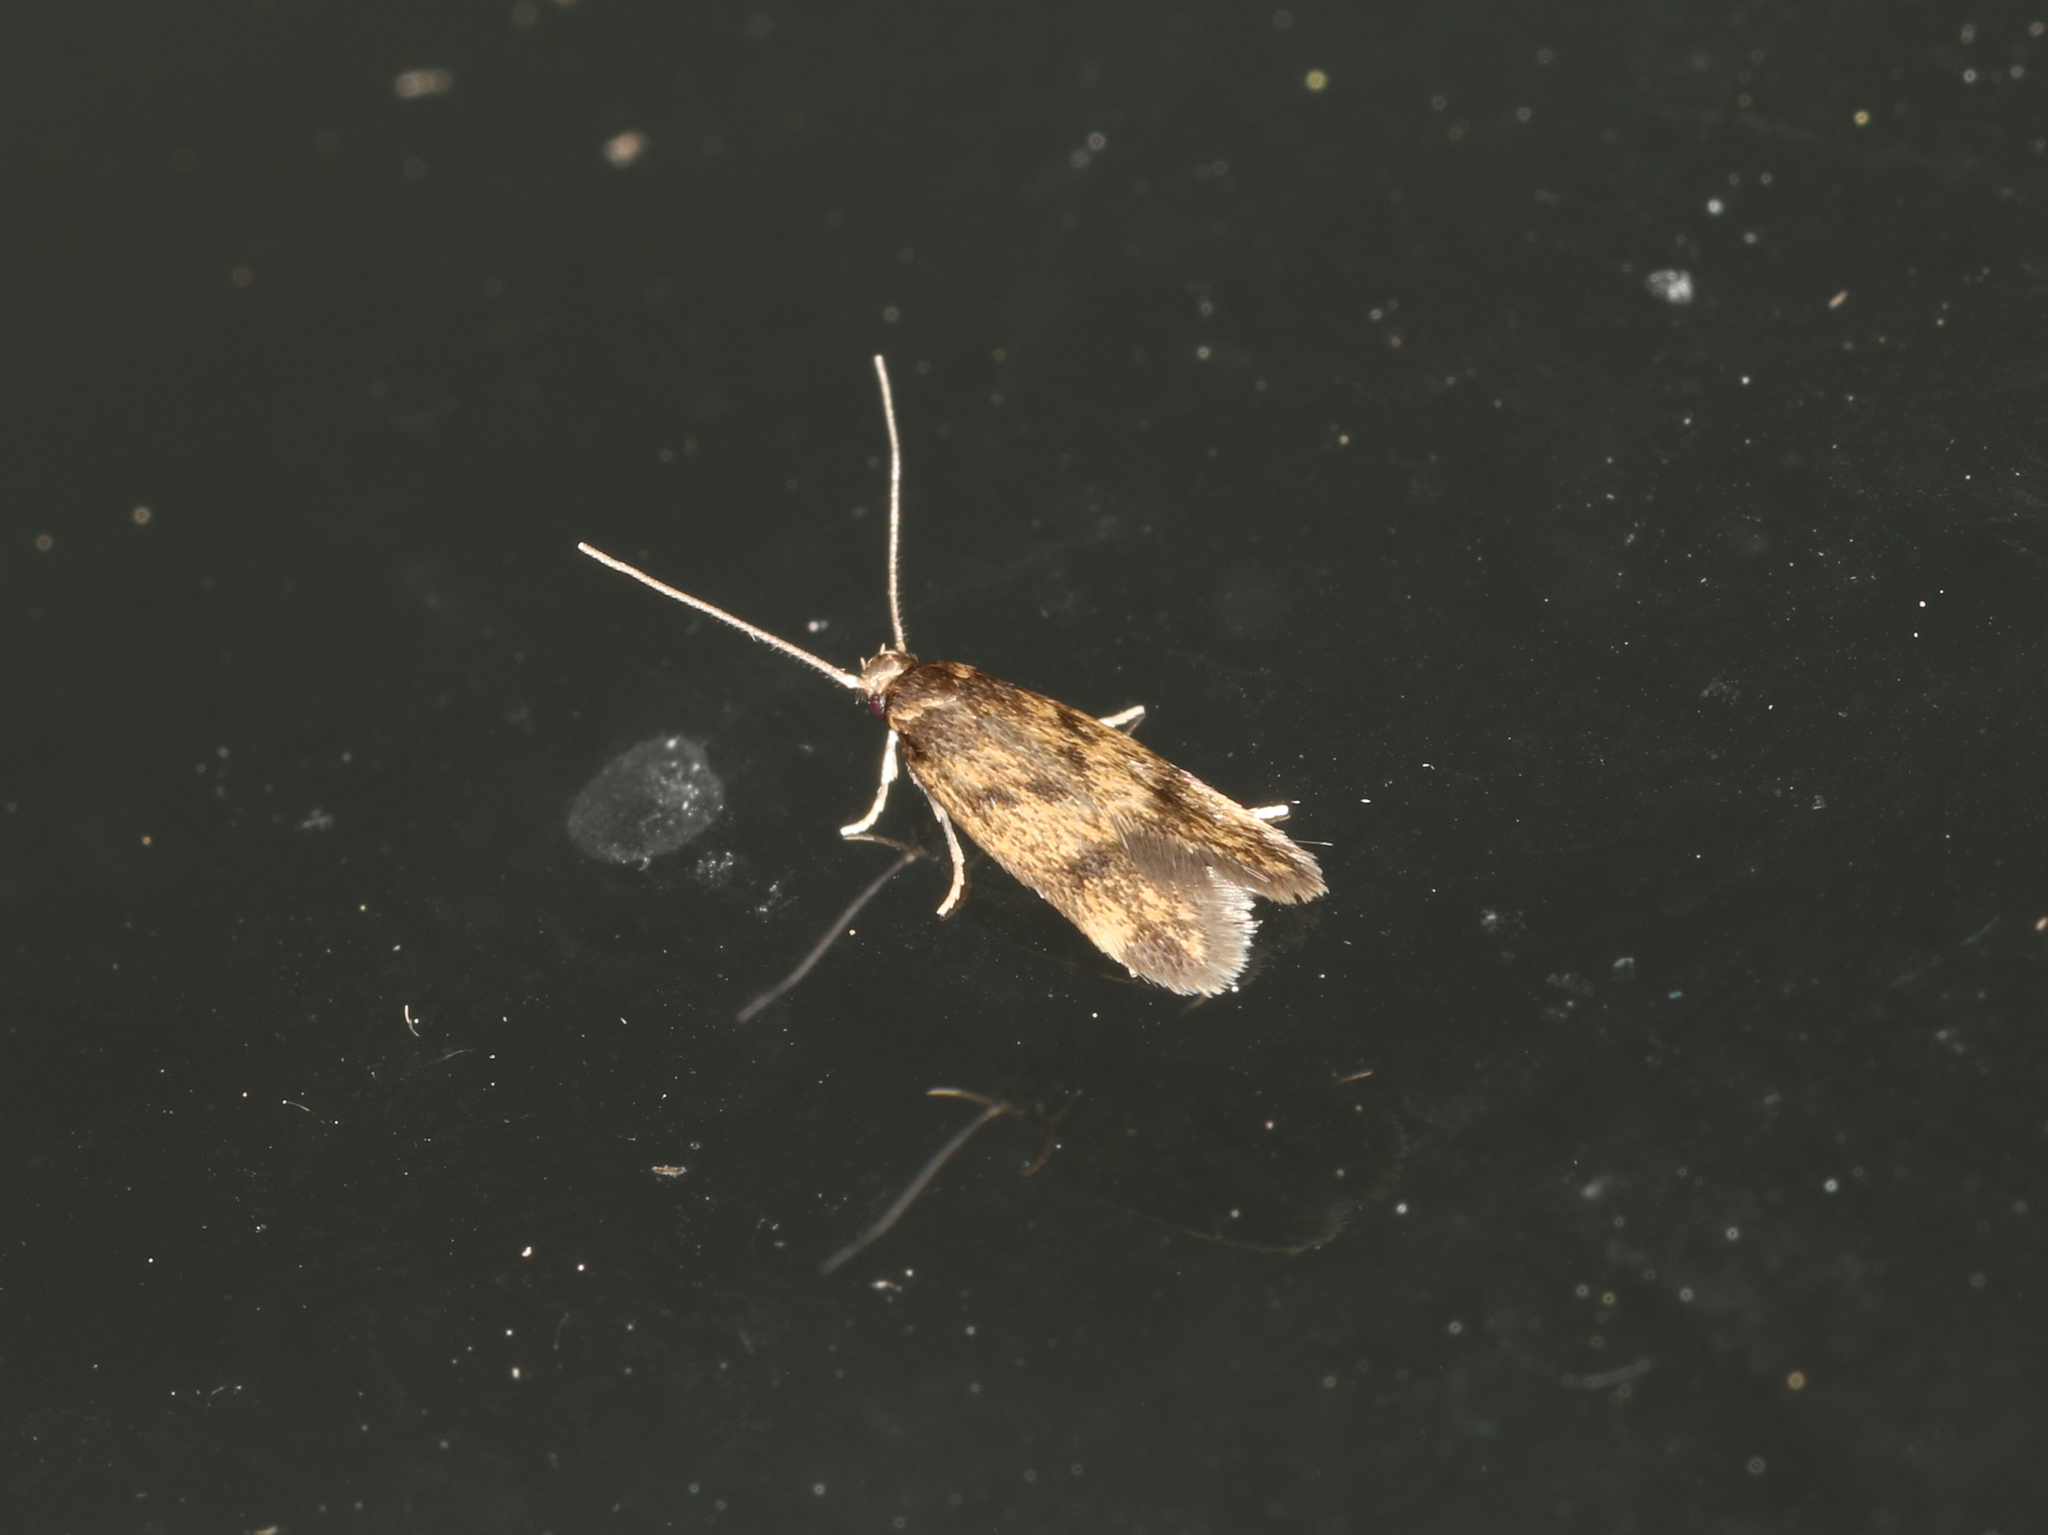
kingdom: Animalia
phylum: Arthropoda
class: Insecta
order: Lepidoptera
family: Oecophoridae
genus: Borkhausenia
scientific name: Borkhausenia fuscescens
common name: Small dingy tubic
